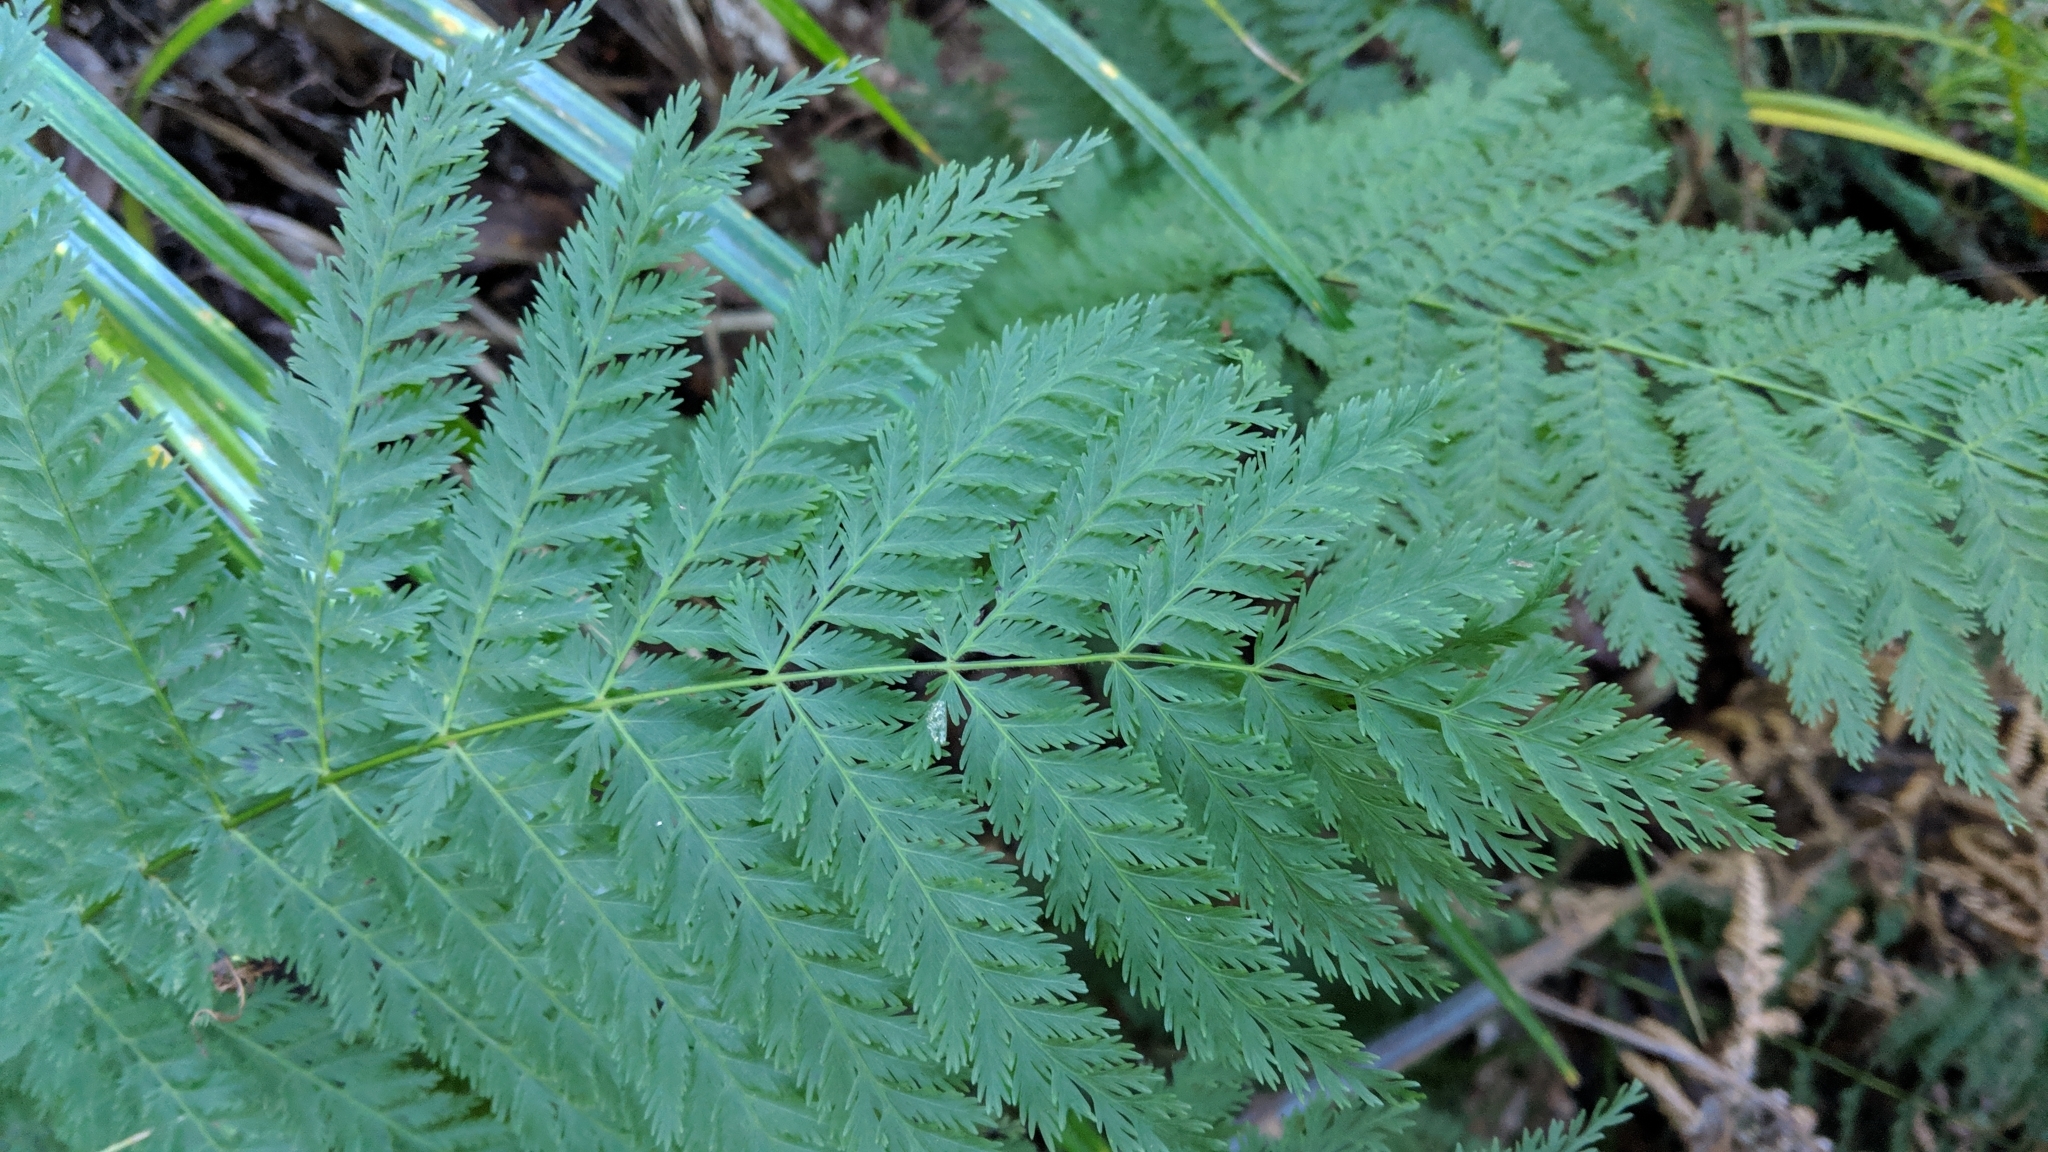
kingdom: Plantae
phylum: Tracheophyta
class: Polypodiopsida
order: Osmundales
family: Osmundaceae
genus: Leptopteris
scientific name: Leptopteris hymenophylloides
